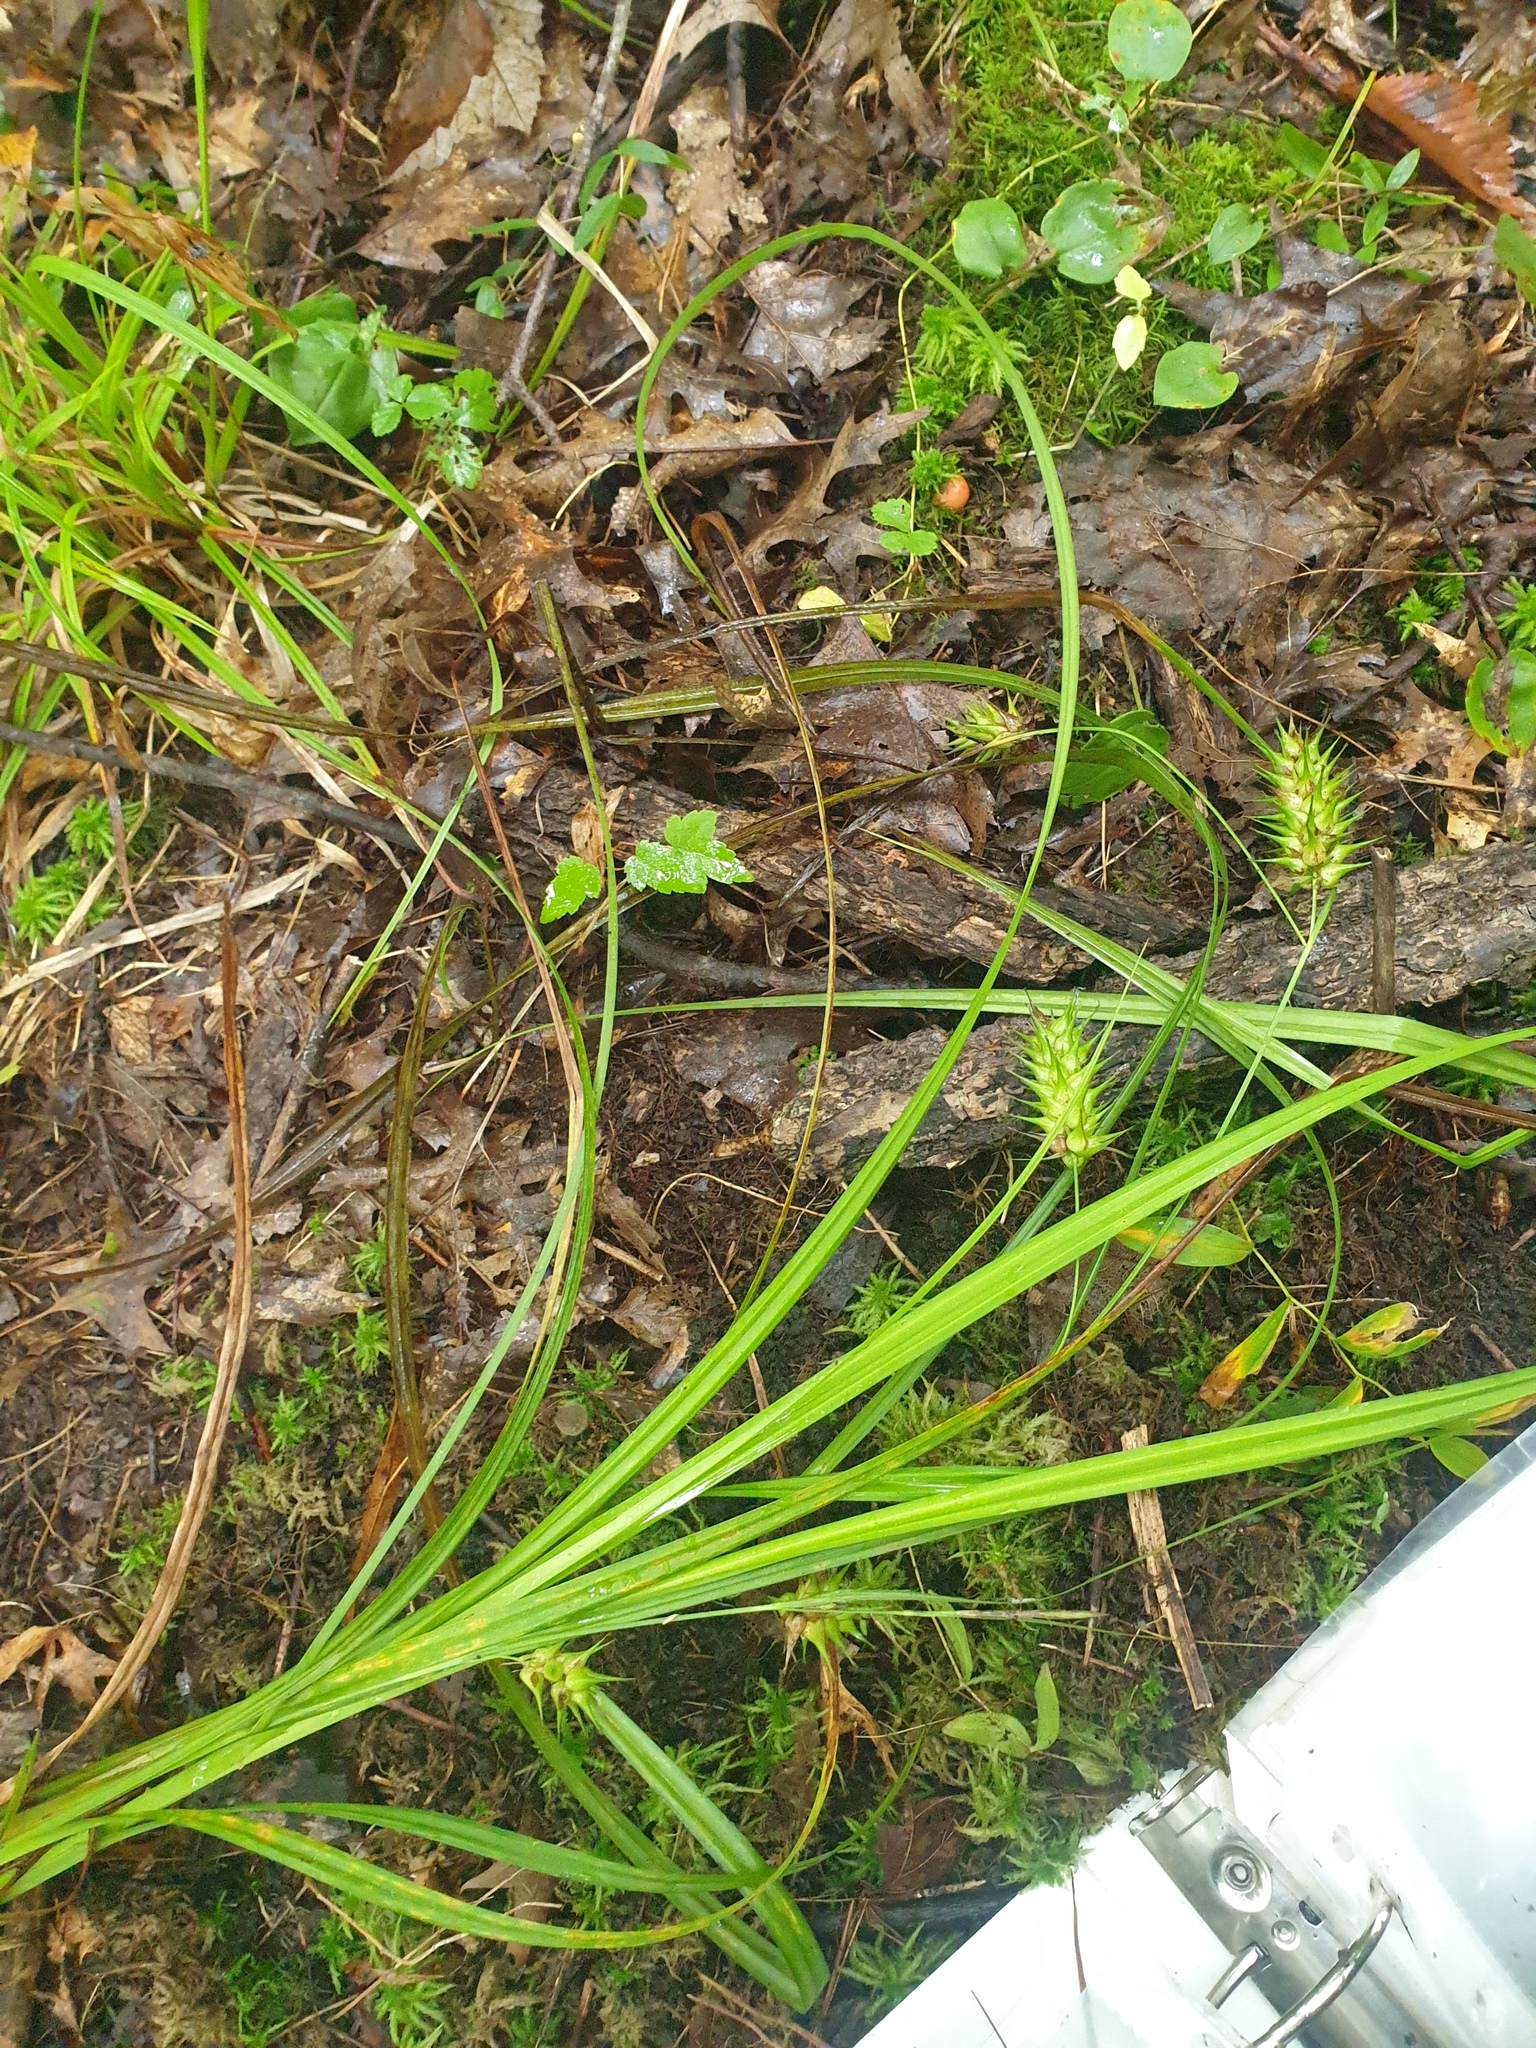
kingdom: Plantae
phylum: Tracheophyta
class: Liliopsida
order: Poales
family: Cyperaceae
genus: Carex
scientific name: Carex lupulina
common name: Hop sedge
